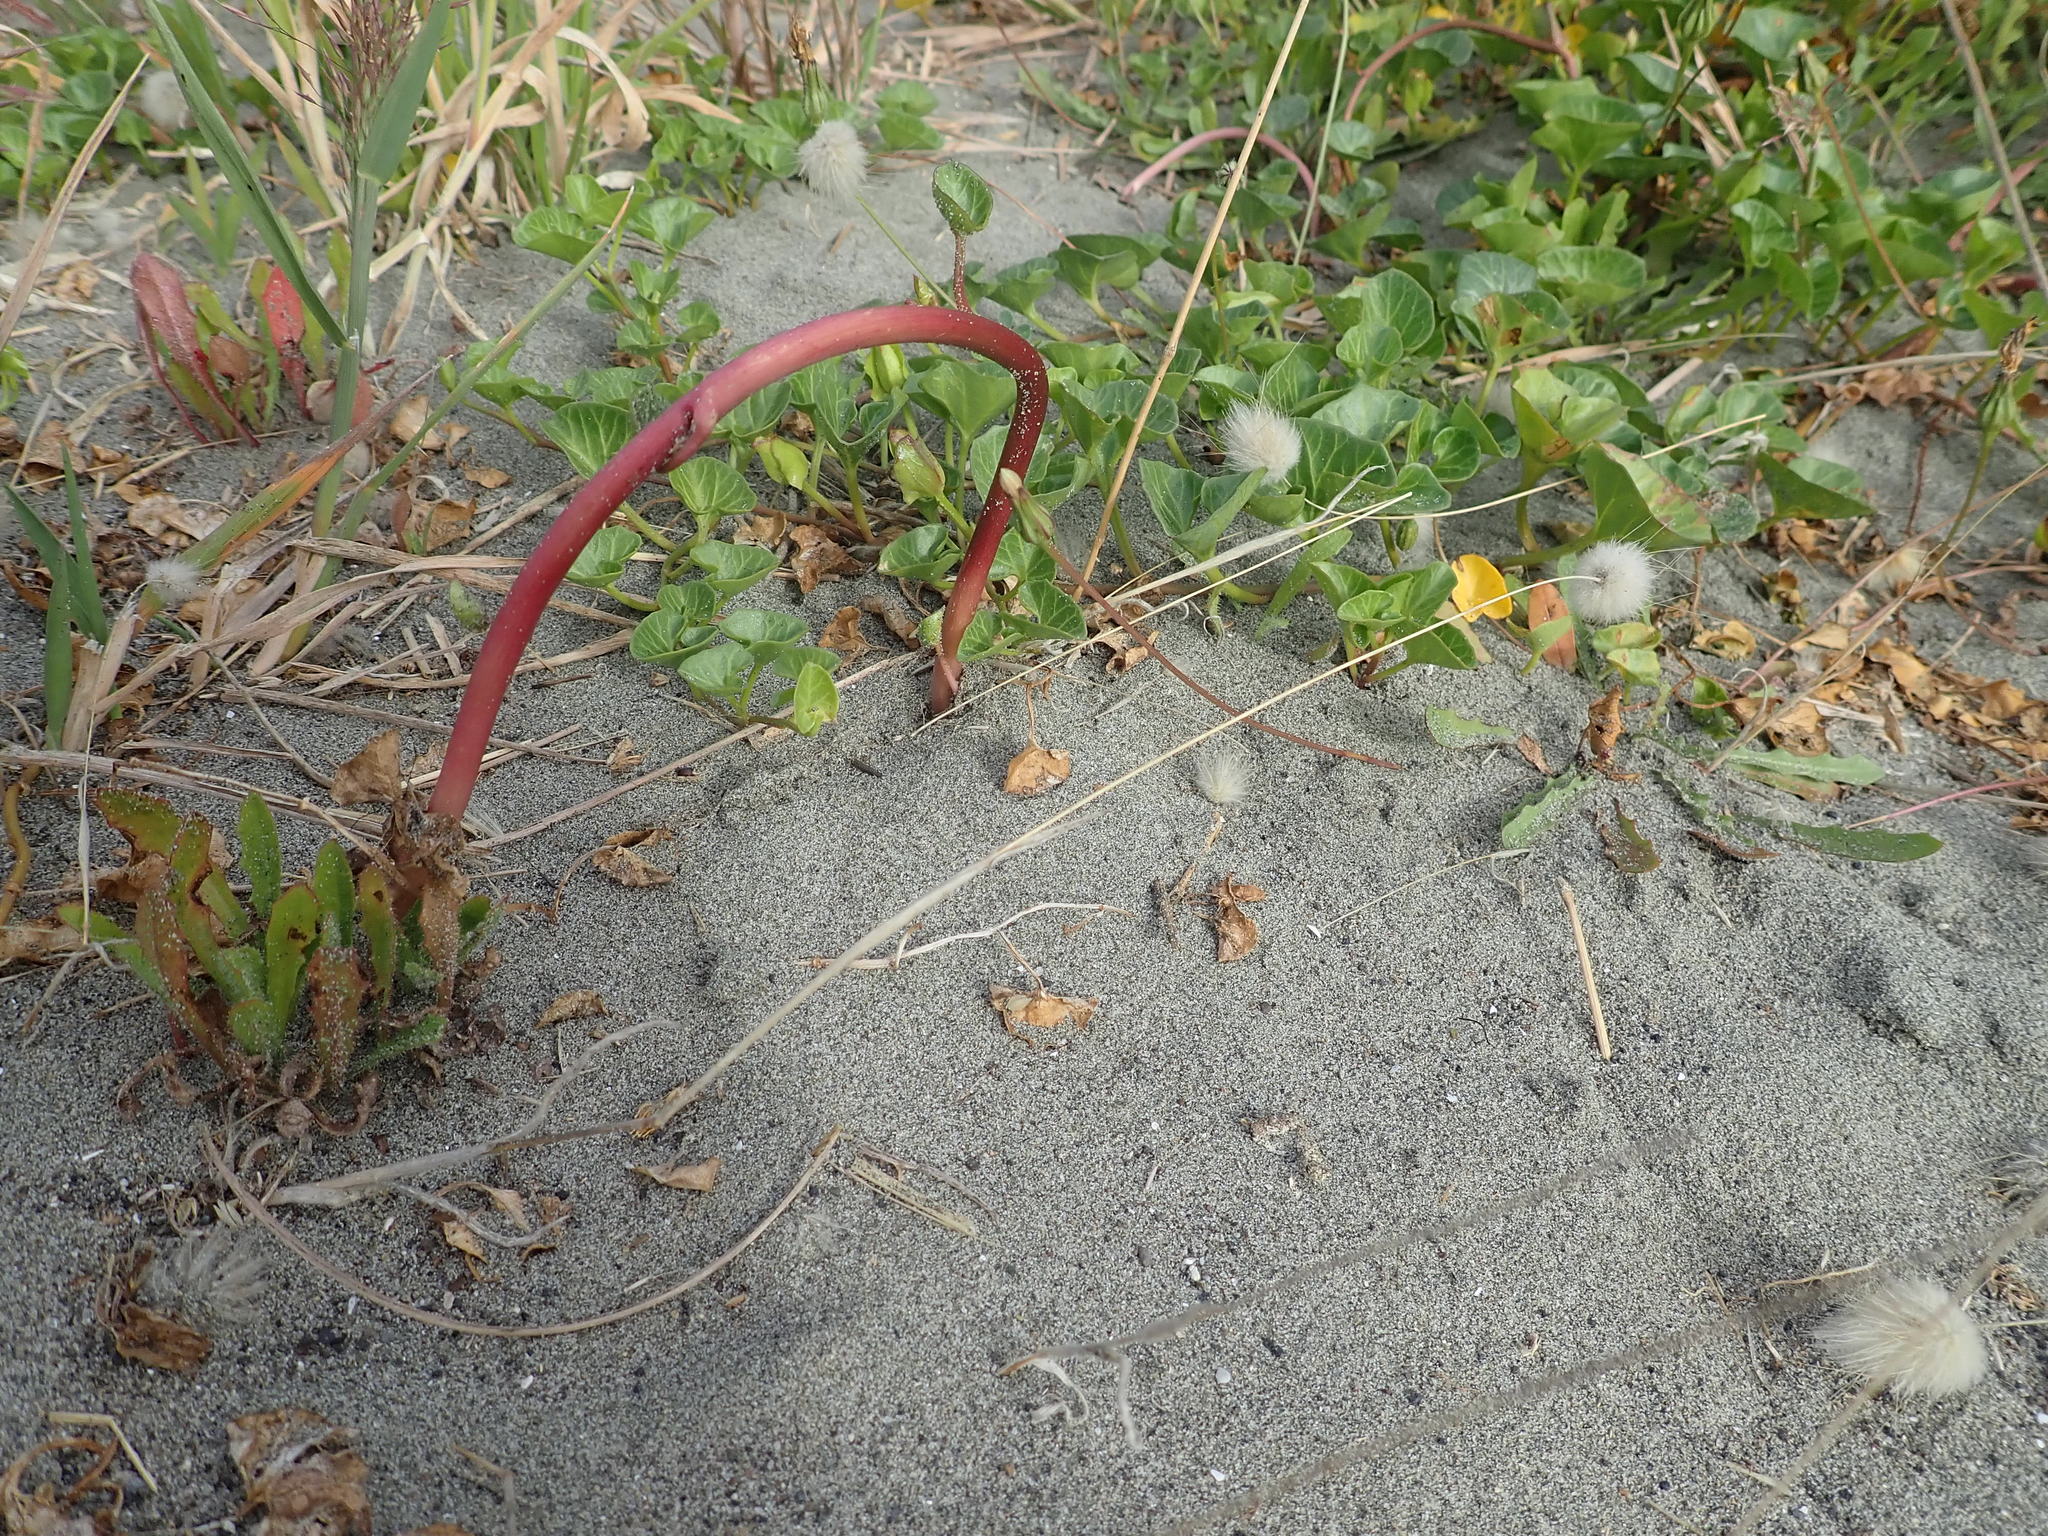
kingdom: Plantae
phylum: Tracheophyta
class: Magnoliopsida
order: Solanales
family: Convolvulaceae
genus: Calystegia
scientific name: Calystegia soldanella
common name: Sea bindweed
